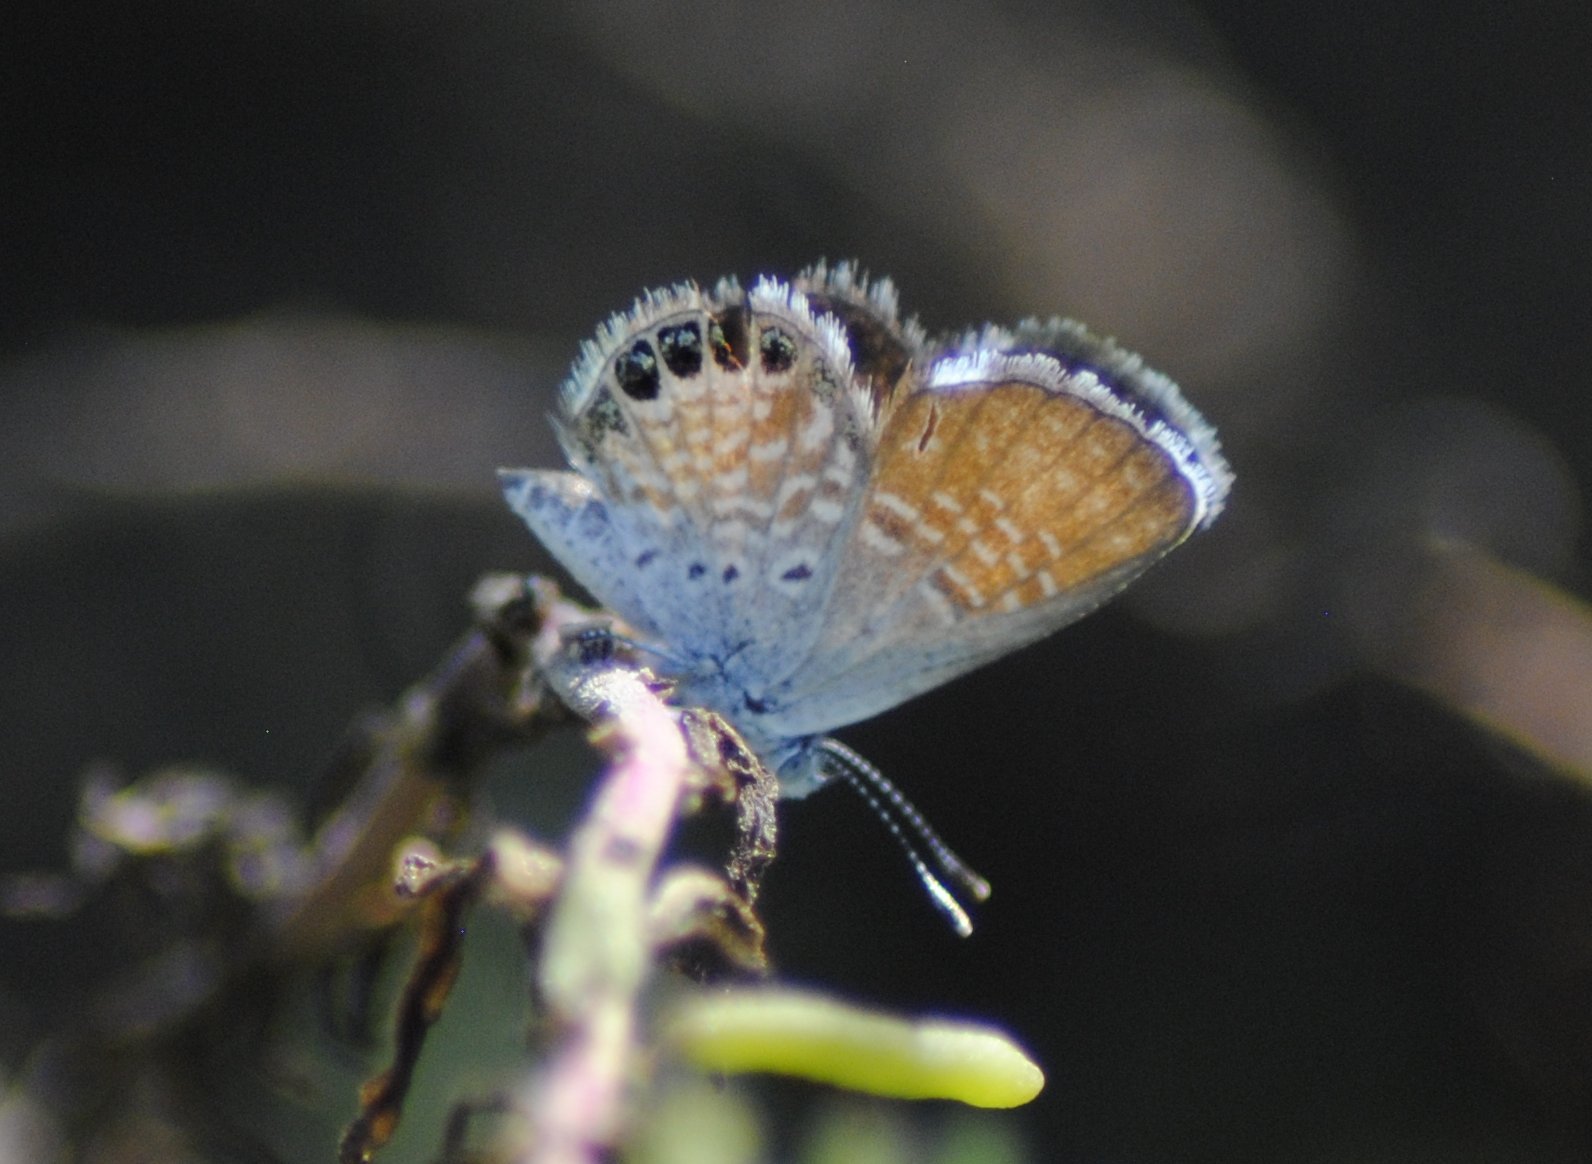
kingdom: Animalia
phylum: Arthropoda
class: Insecta
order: Lepidoptera
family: Lycaenidae
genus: Brephidium
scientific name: Brephidium exilis
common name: Pygmy blue
